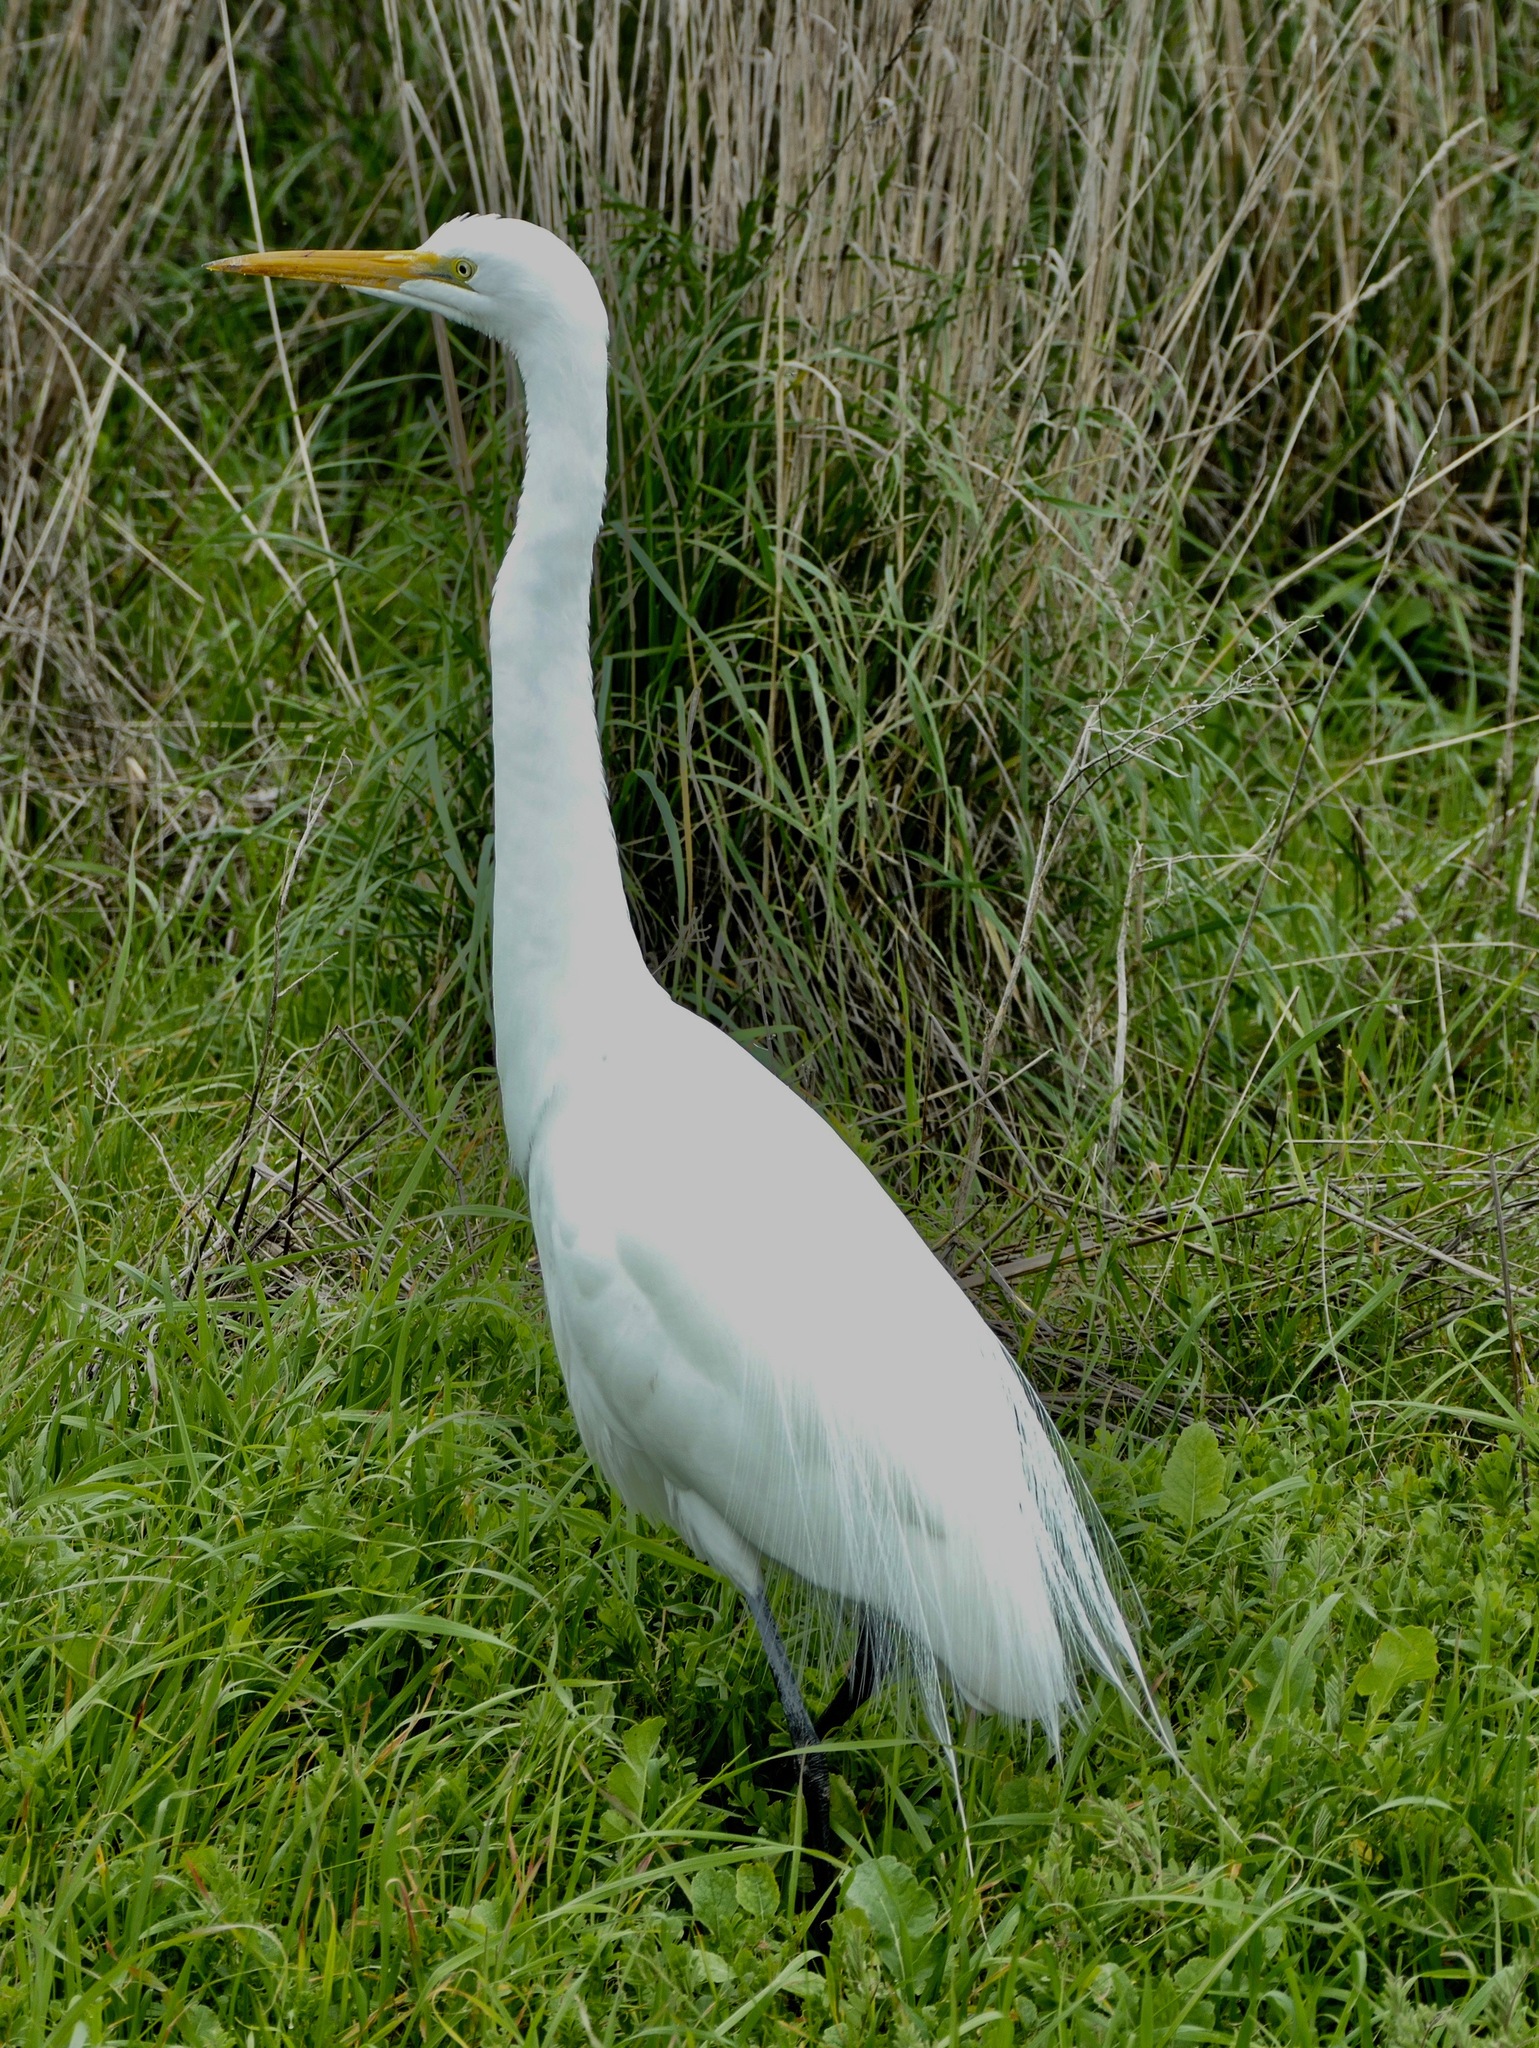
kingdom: Animalia
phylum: Chordata
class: Aves
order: Pelecaniformes
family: Ardeidae
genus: Ardea
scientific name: Ardea alba
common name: Great egret
